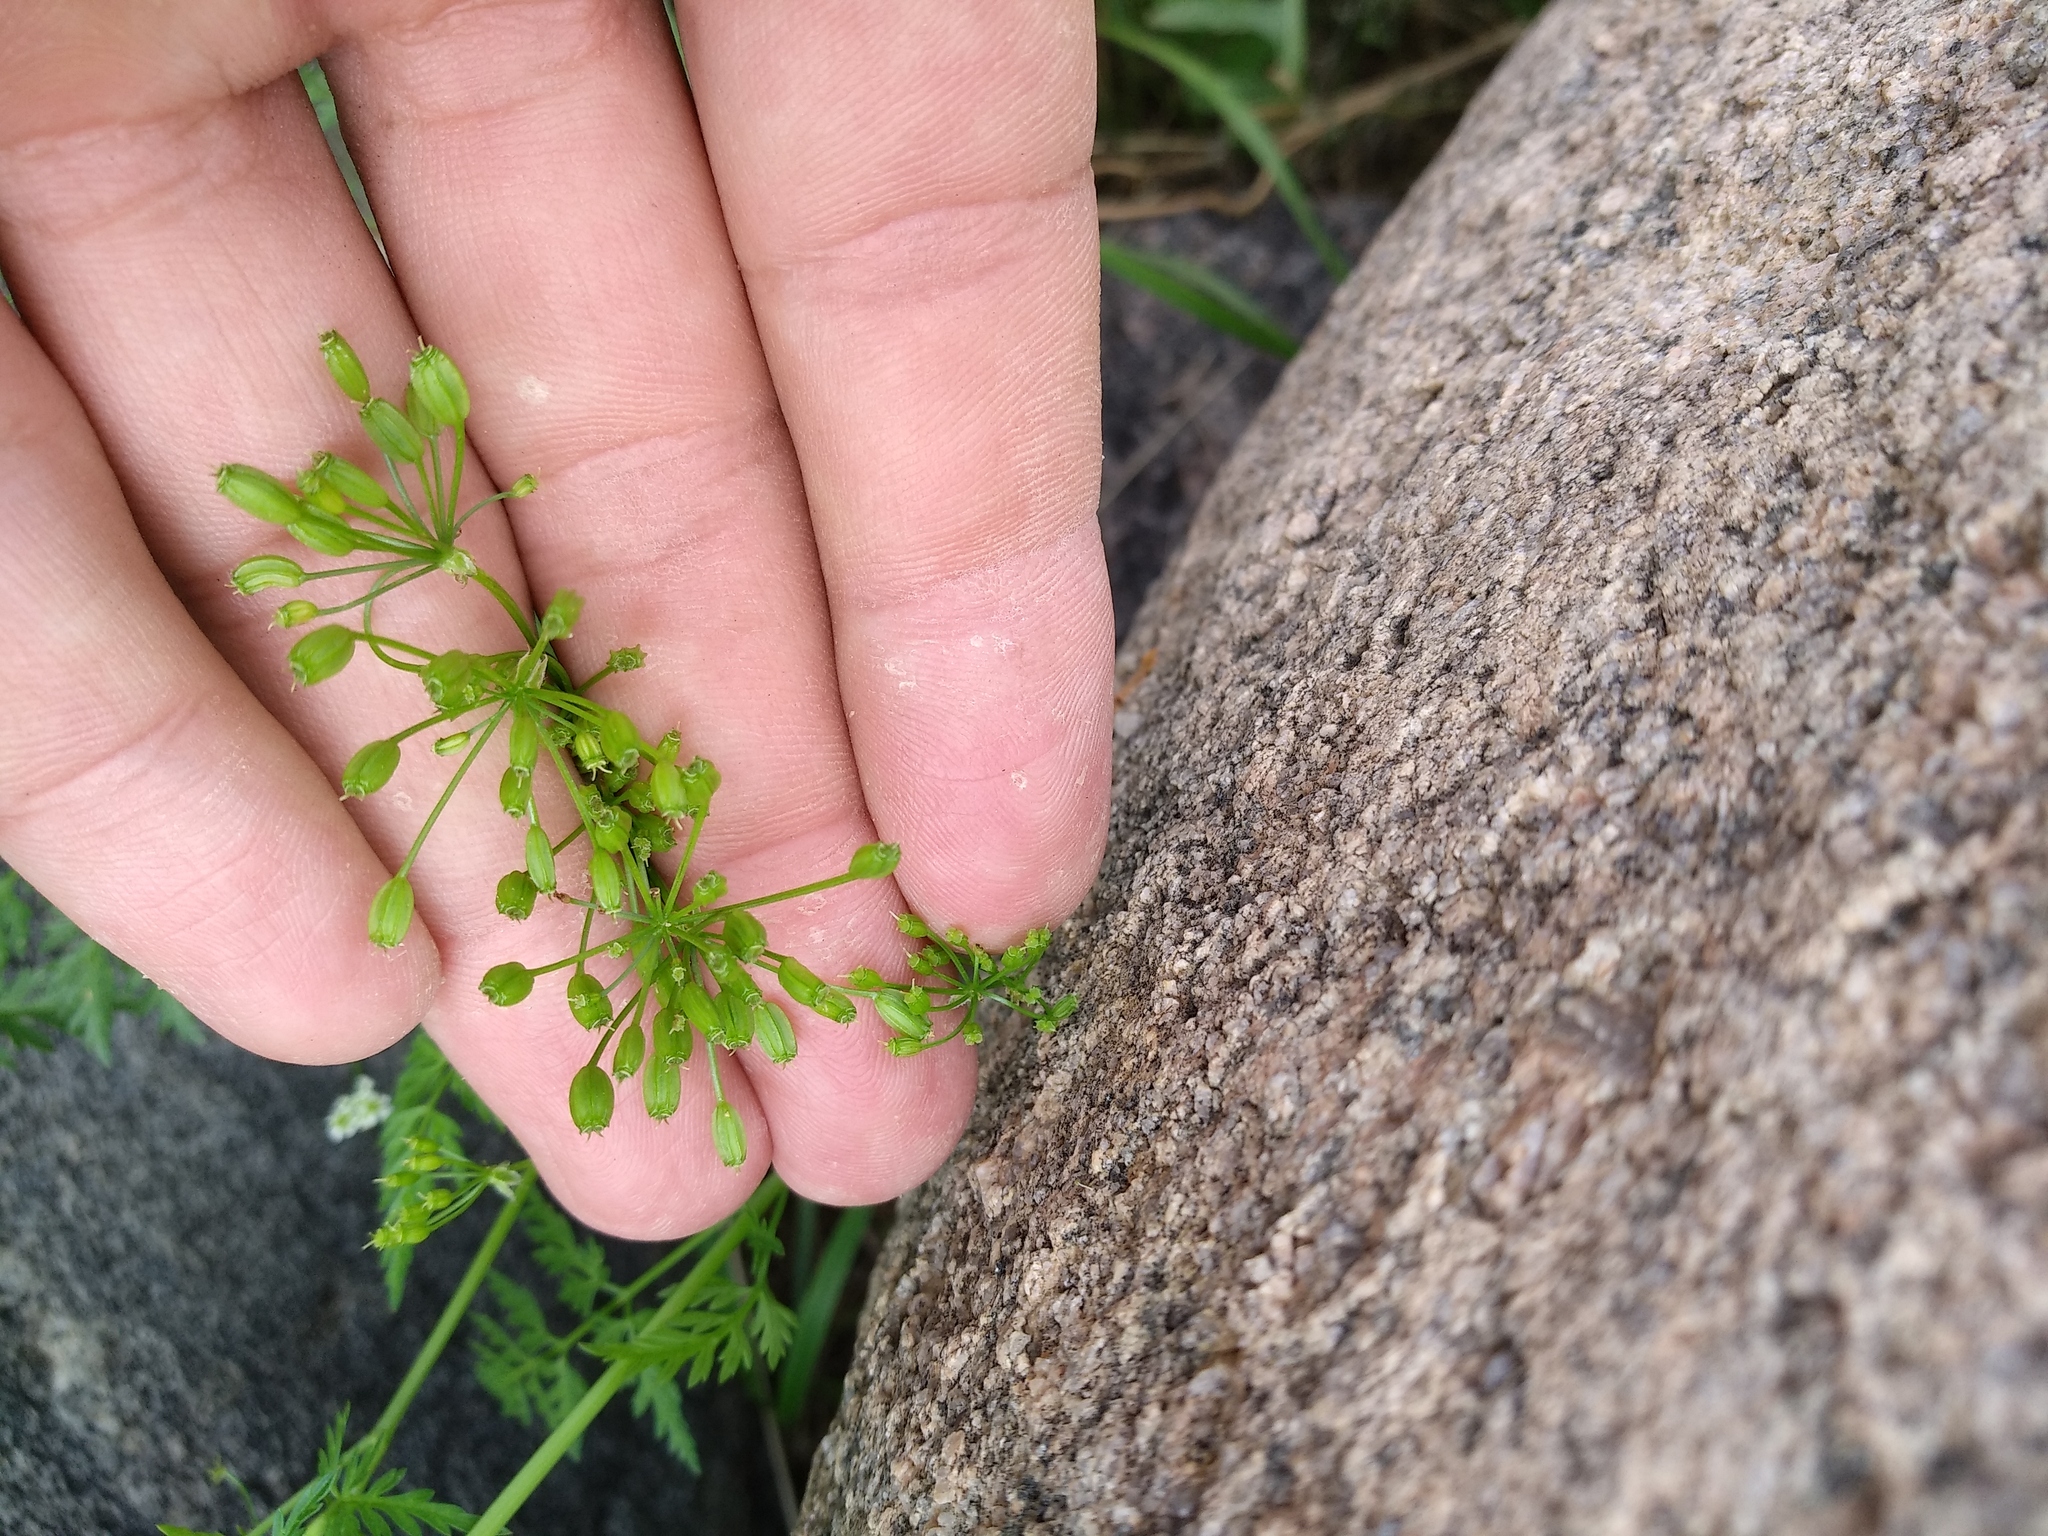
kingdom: Plantae
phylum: Tracheophyta
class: Magnoliopsida
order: Apiales
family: Apiaceae
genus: Sphallerocarpus
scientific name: Sphallerocarpus gracilis
